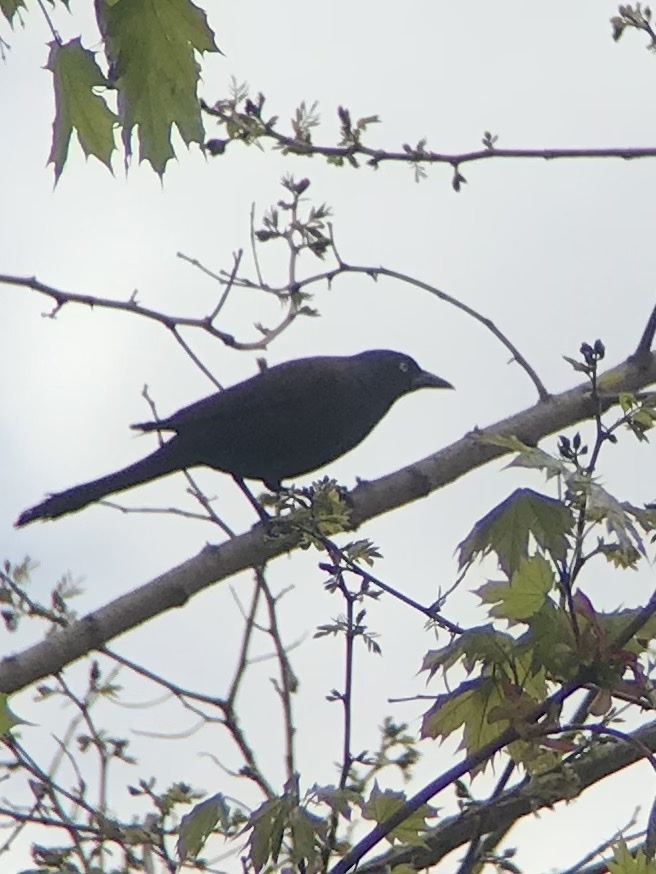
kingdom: Animalia
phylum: Chordata
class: Aves
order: Passeriformes
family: Icteridae
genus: Quiscalus
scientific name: Quiscalus quiscula
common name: Common grackle
